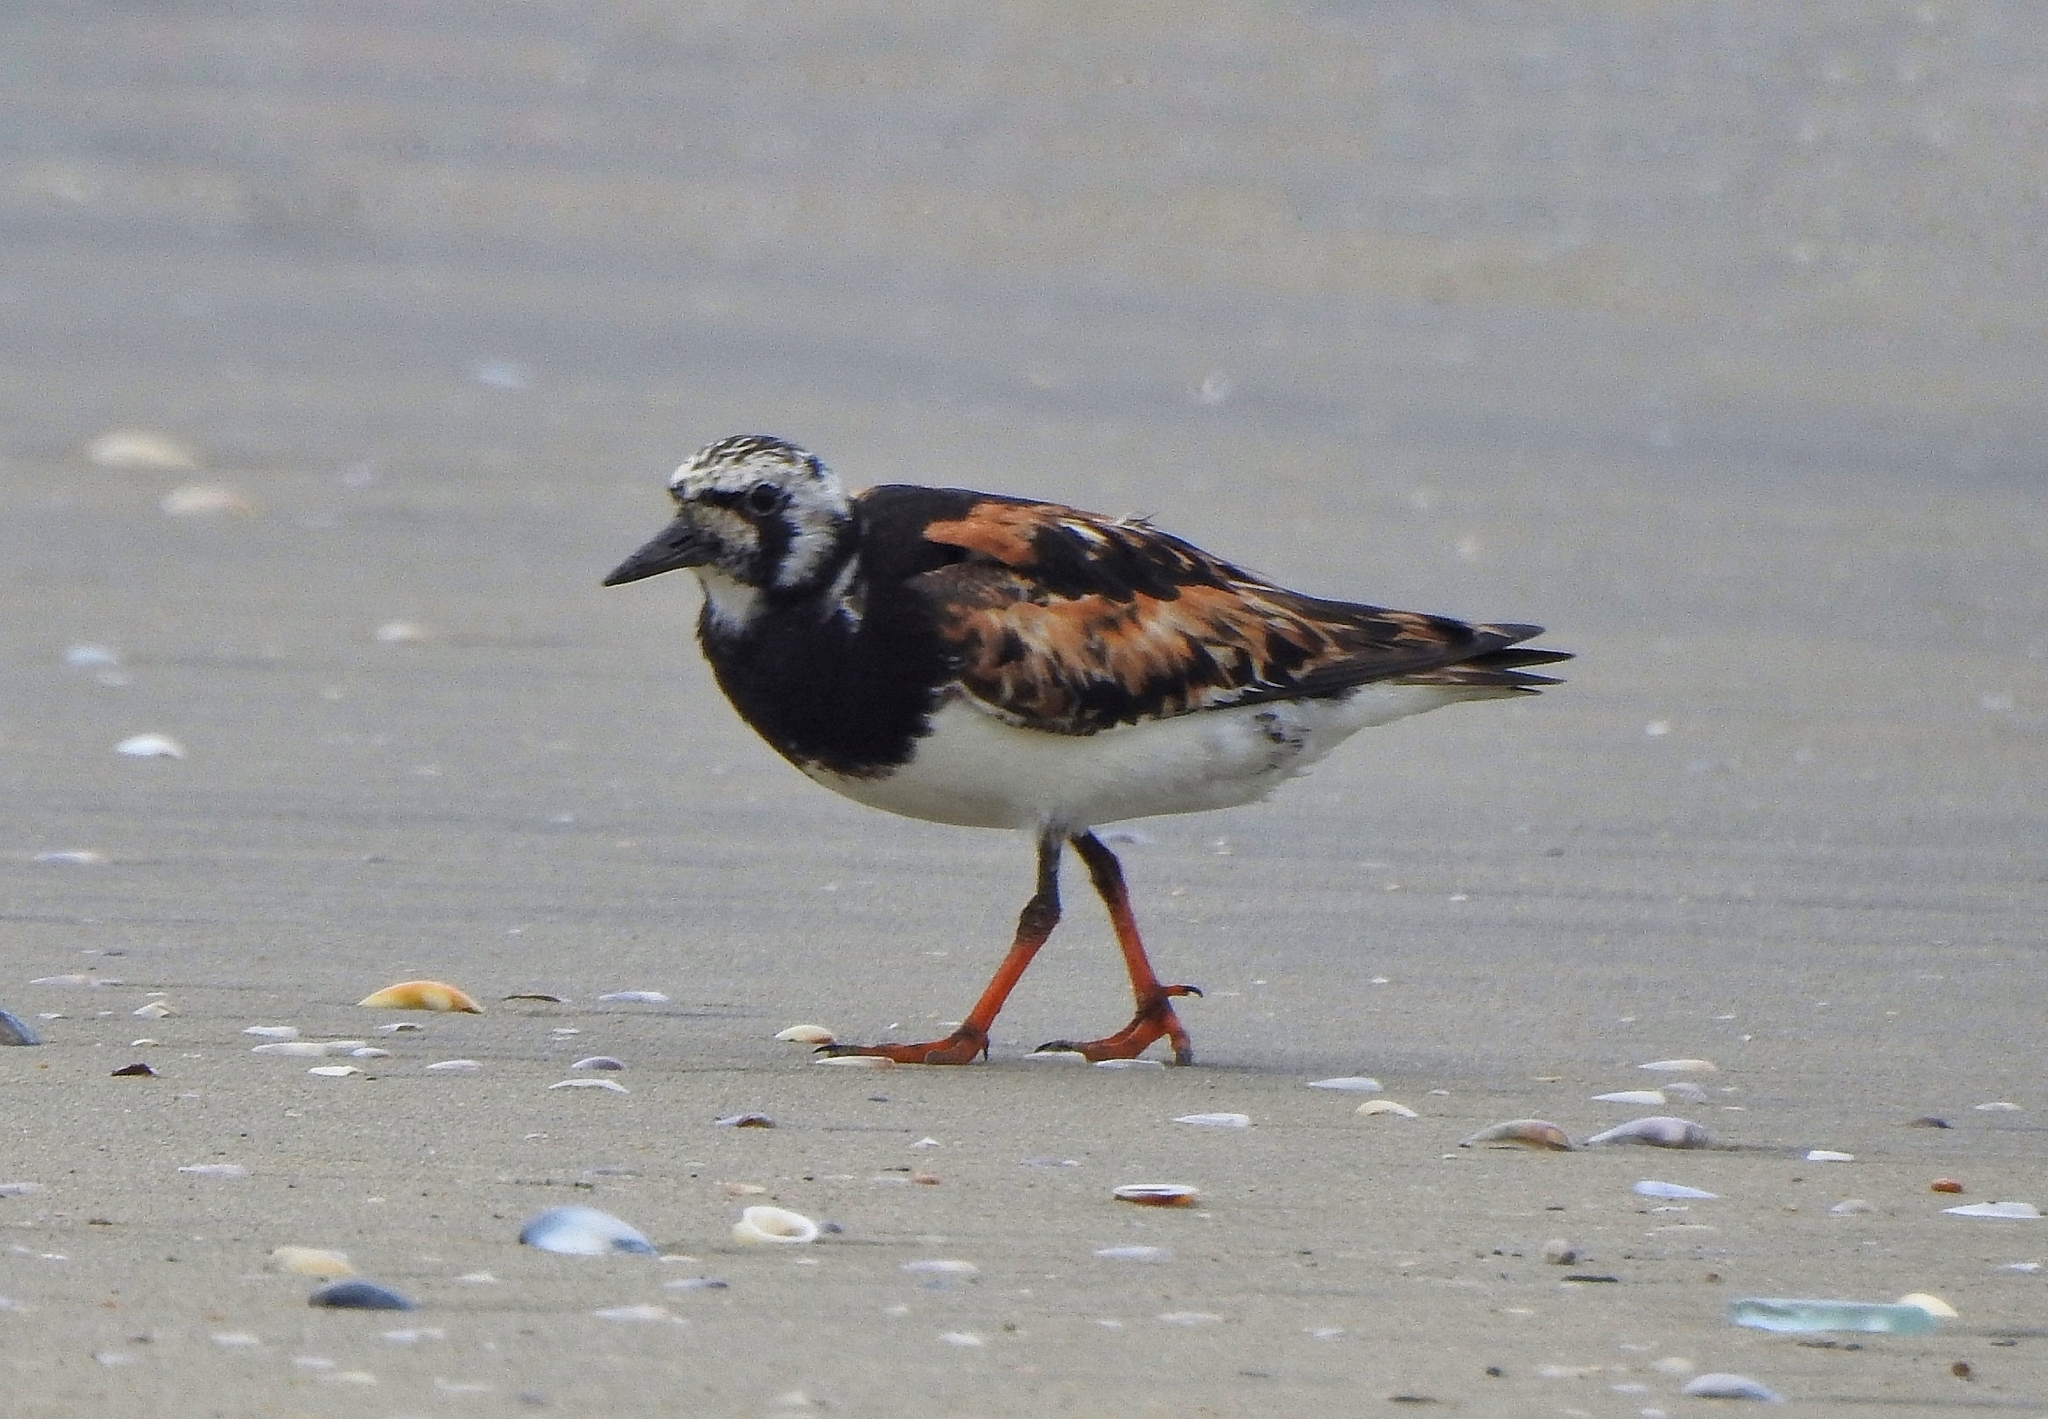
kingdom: Animalia
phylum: Chordata
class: Aves
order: Charadriiformes
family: Scolopacidae
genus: Arenaria
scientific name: Arenaria interpres
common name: Ruddy turnstone
